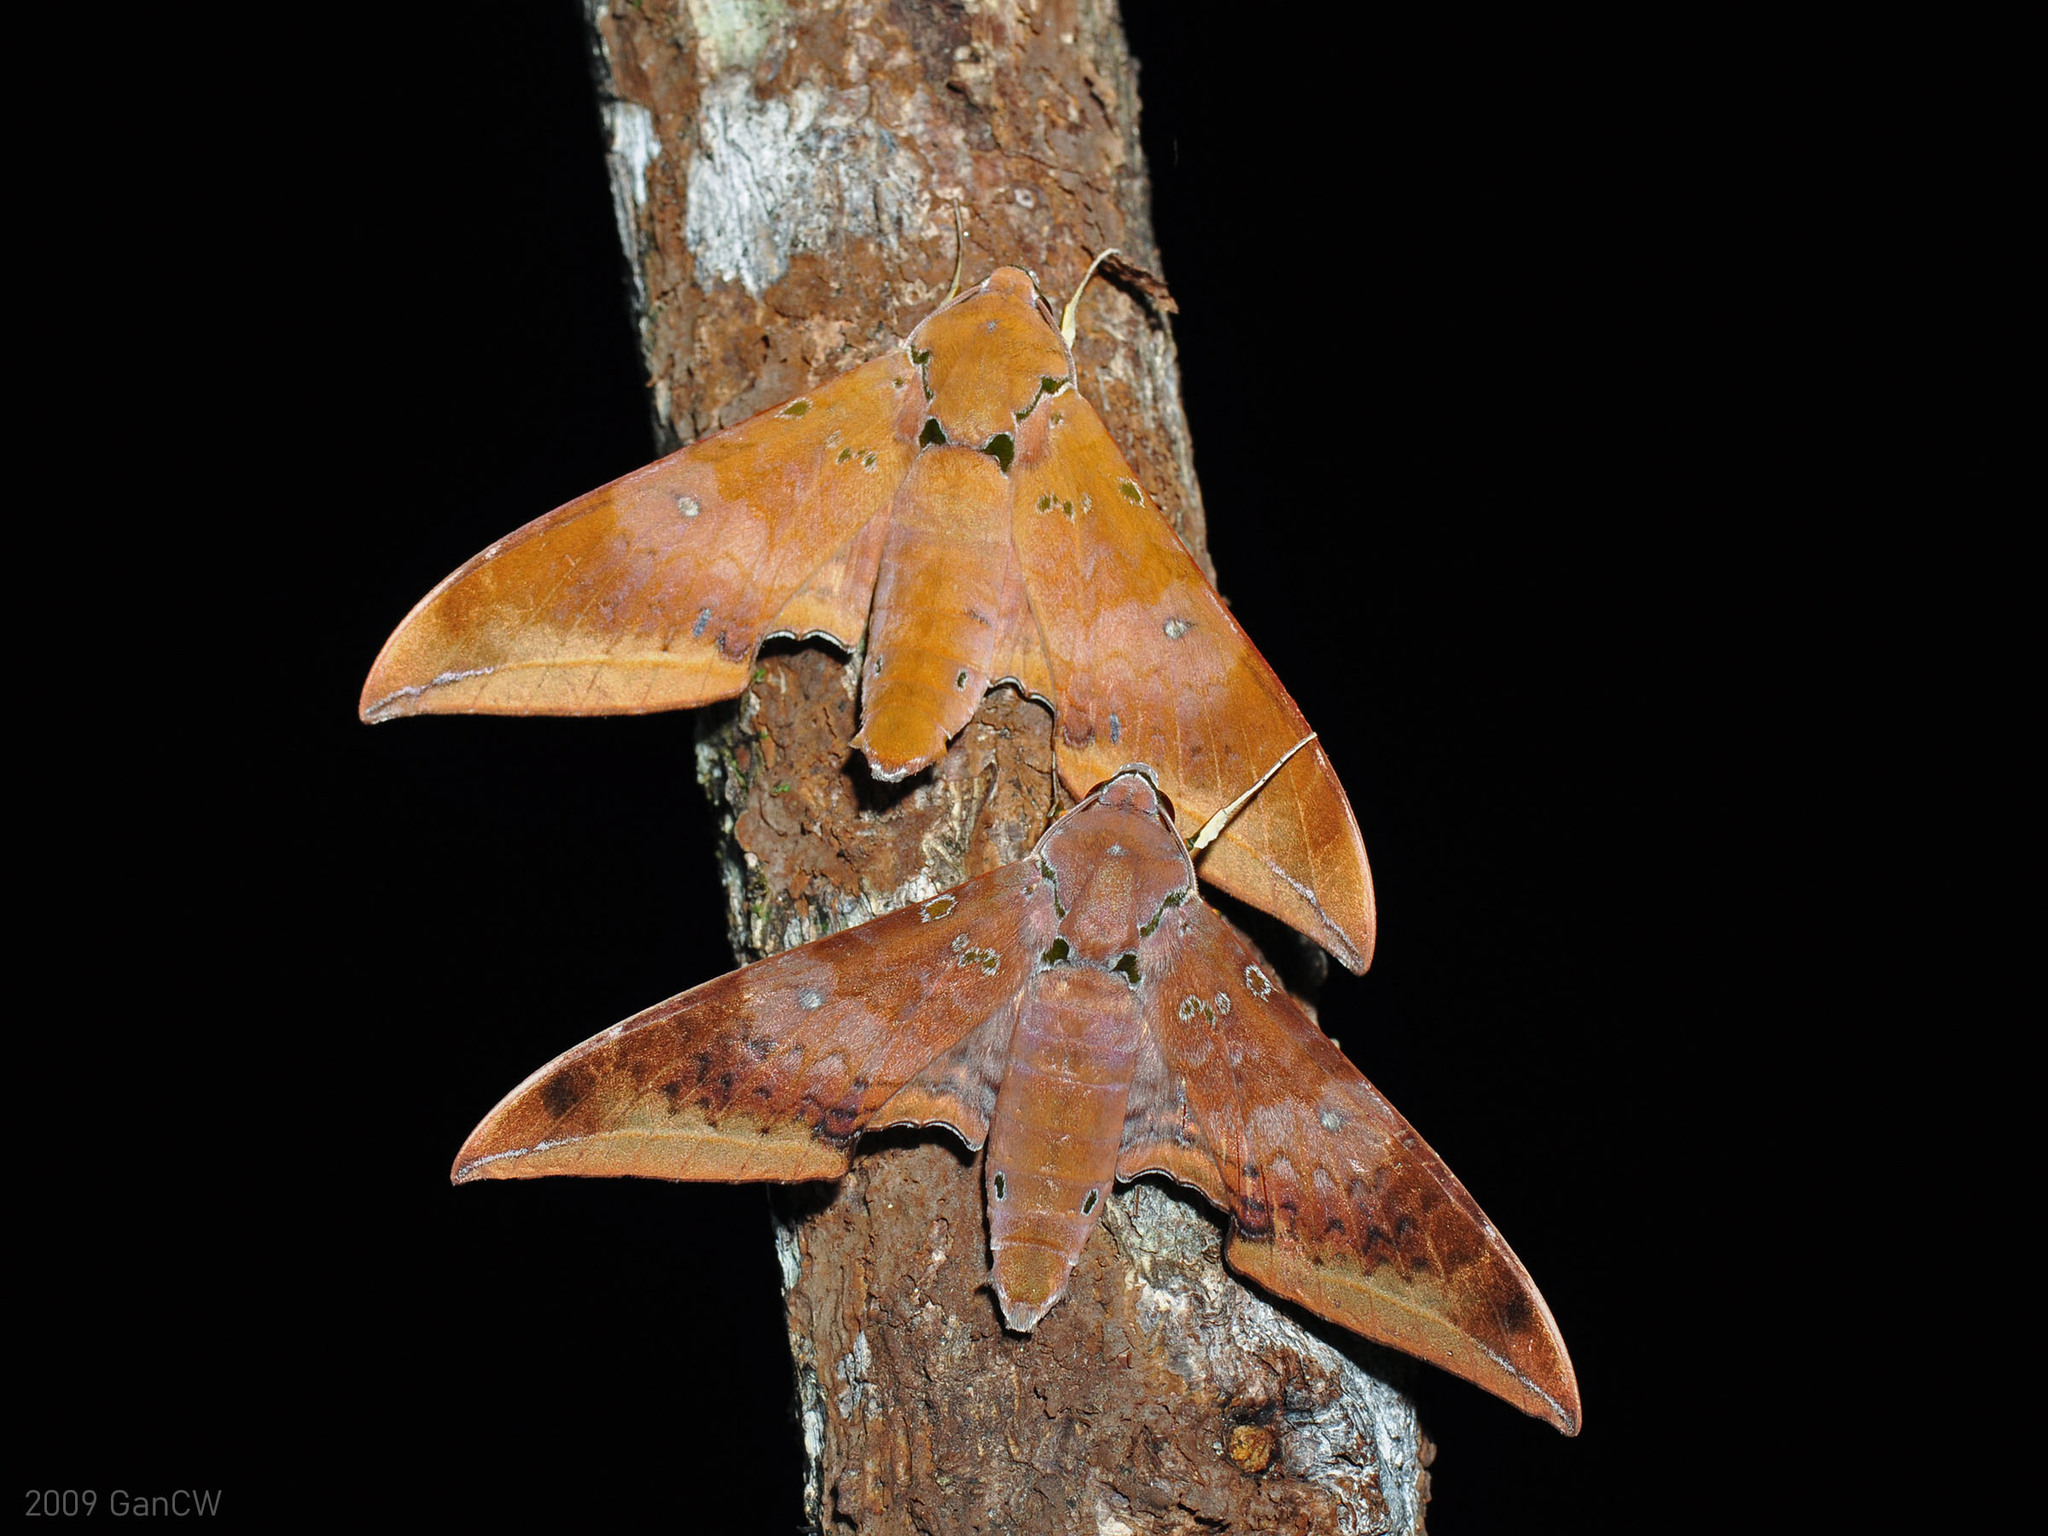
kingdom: Animalia
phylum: Arthropoda
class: Insecta
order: Lepidoptera
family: Sphingidae
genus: Ambulyx
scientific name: Ambulyx moorei
